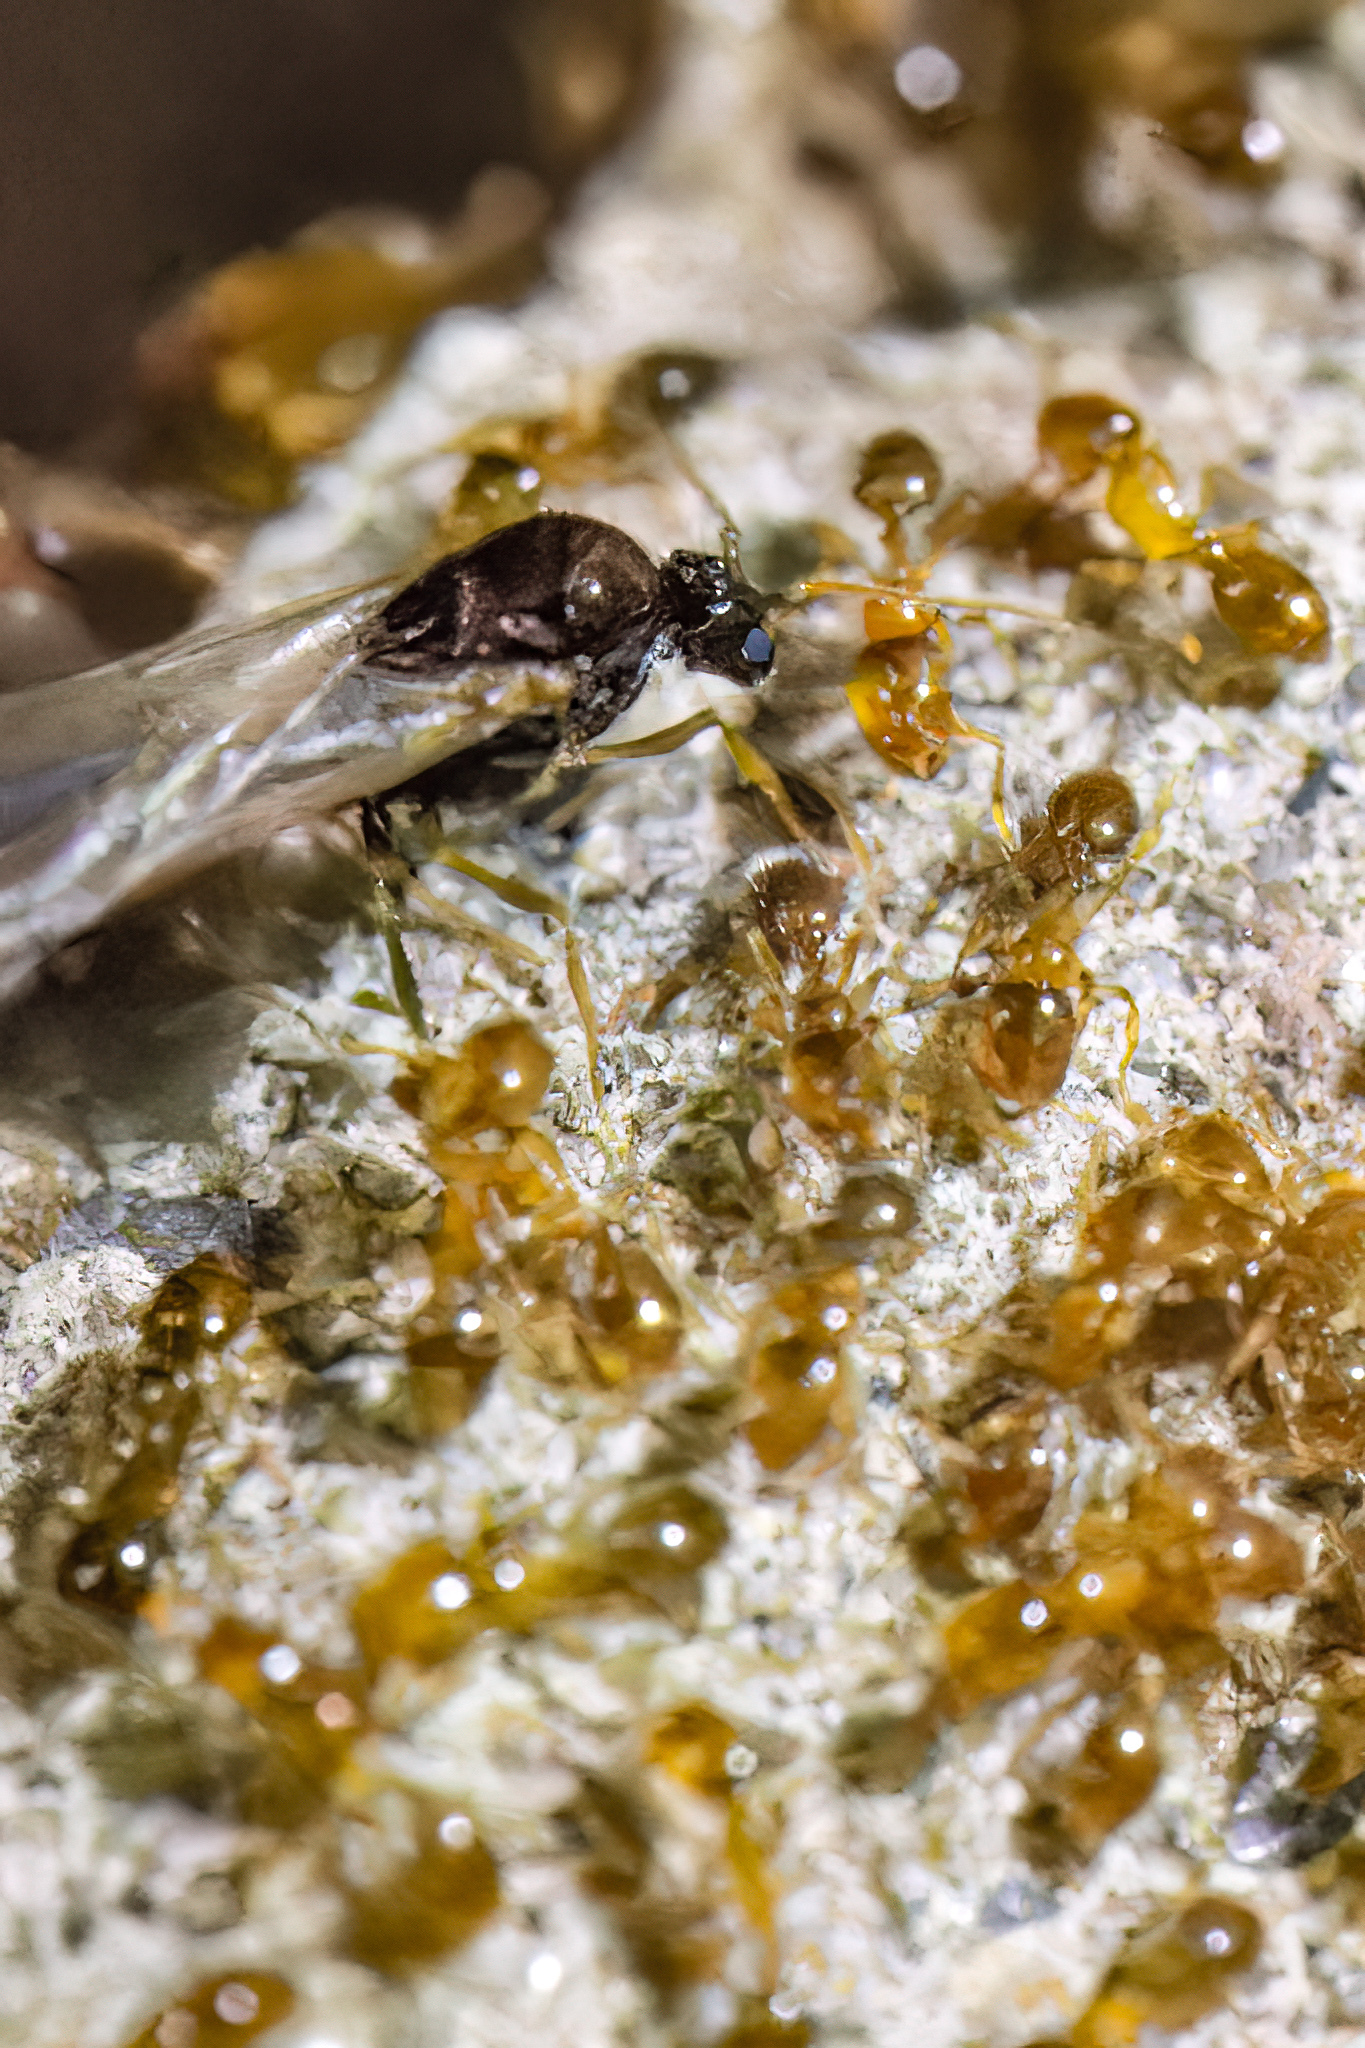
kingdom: Animalia
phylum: Arthropoda
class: Insecta
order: Hymenoptera
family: Formicidae
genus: Solenopsis
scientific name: Solenopsis molesta
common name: Thief ant
